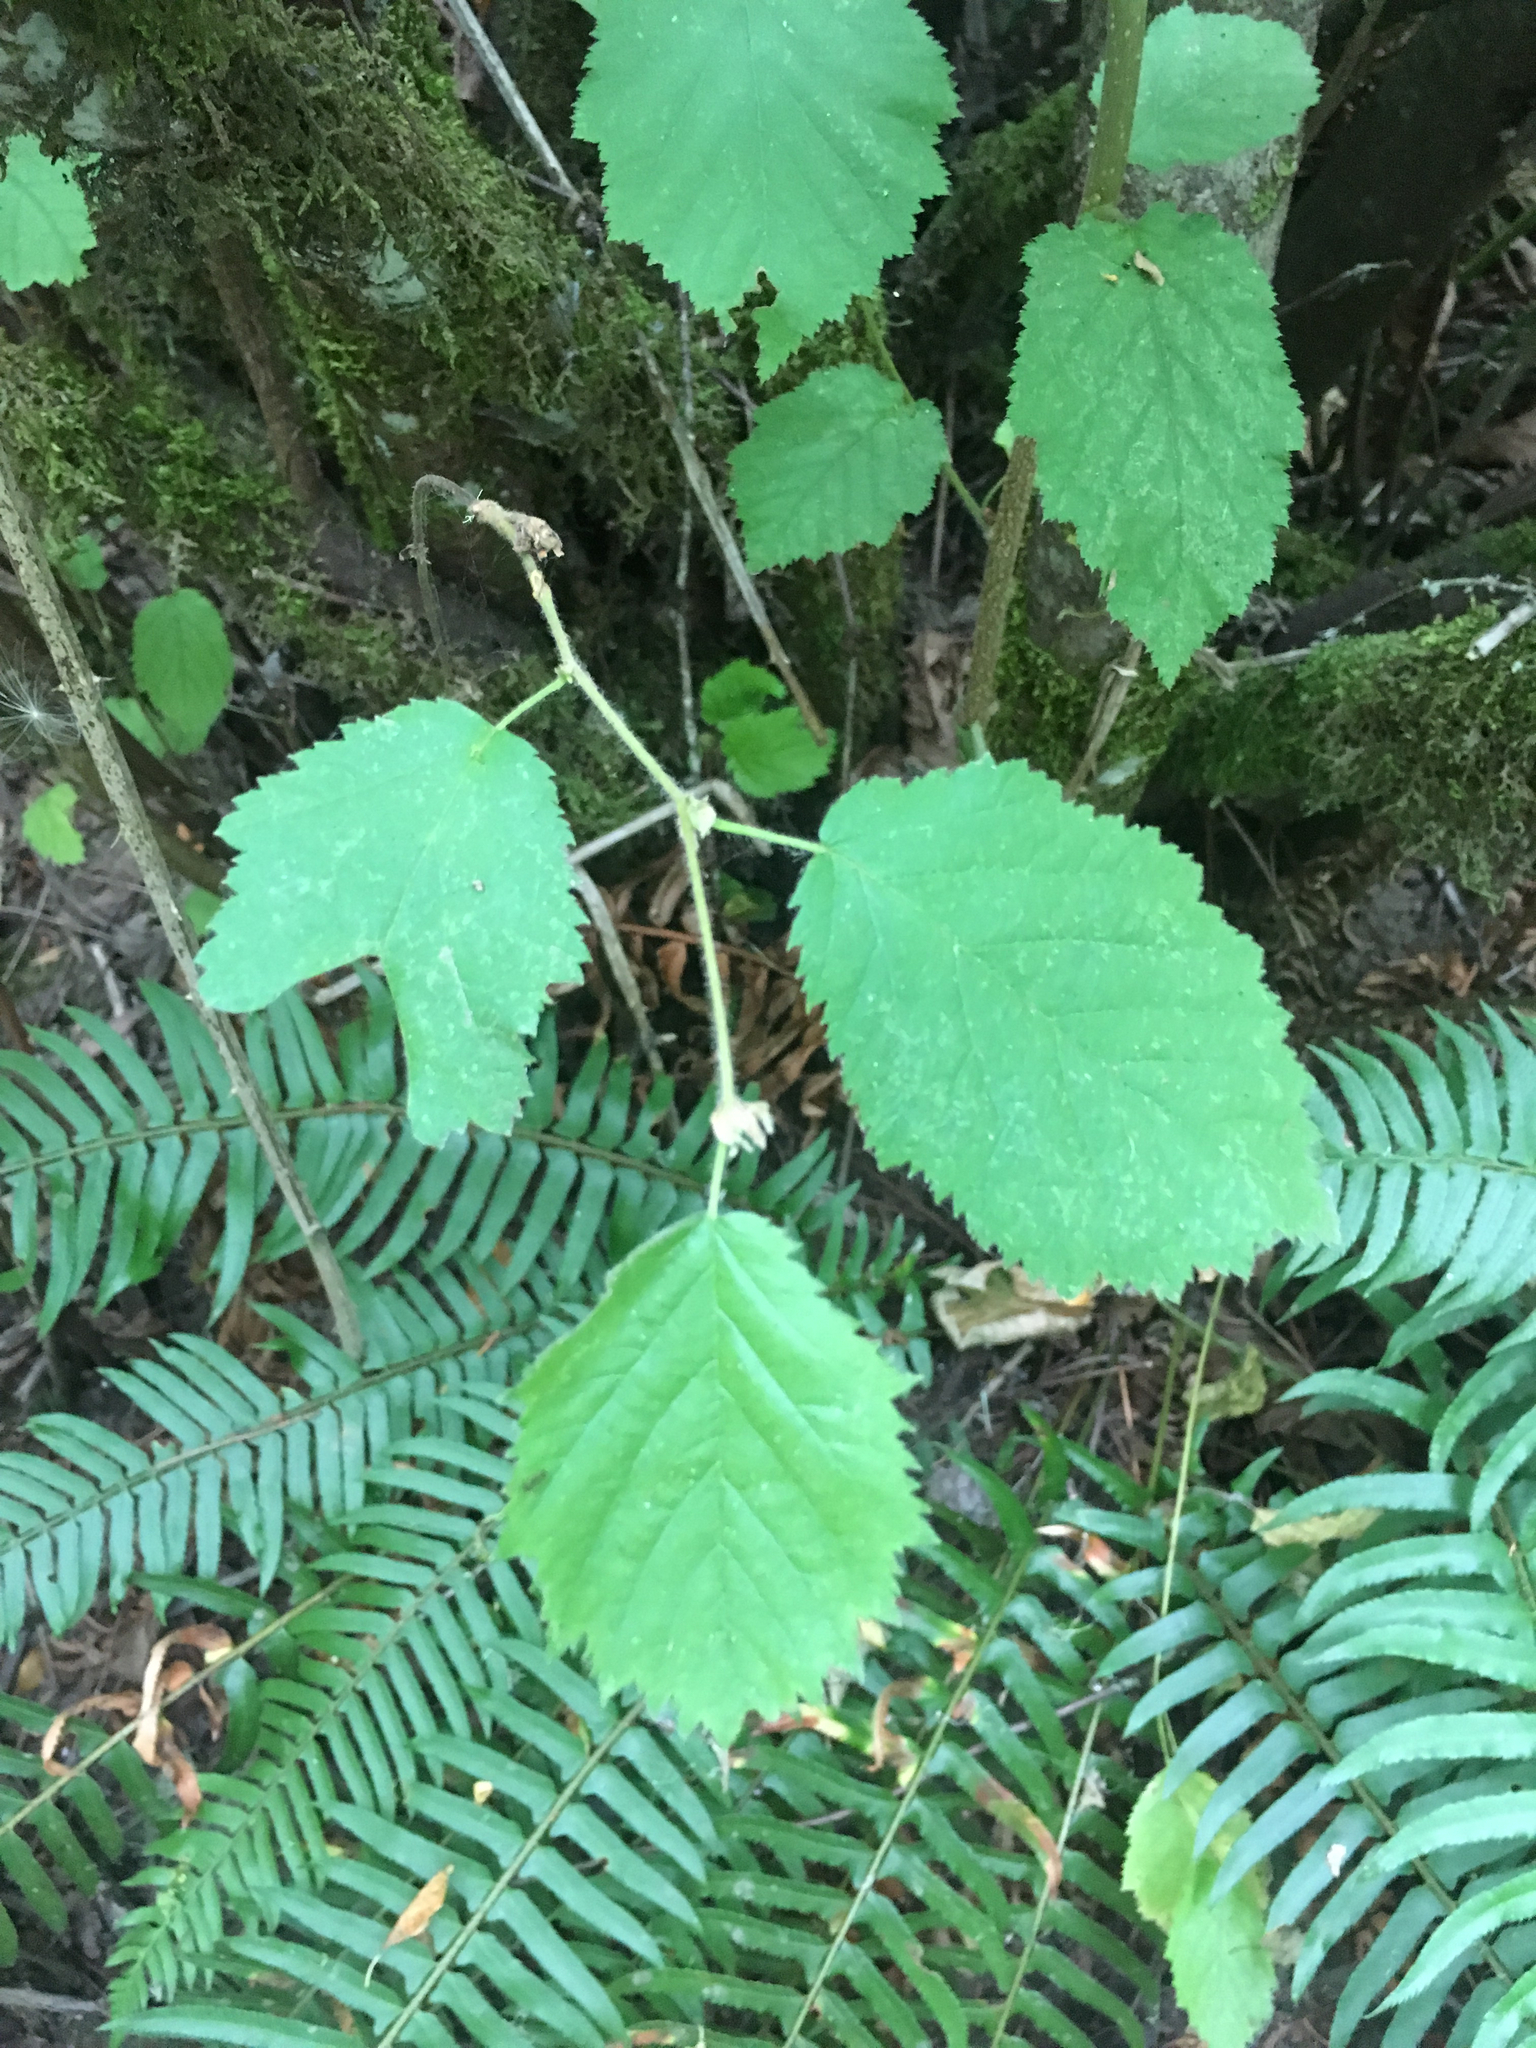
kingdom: Plantae
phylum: Tracheophyta
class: Magnoliopsida
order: Fagales
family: Betulaceae
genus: Corylus
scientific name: Corylus cornuta
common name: Beaked hazel
